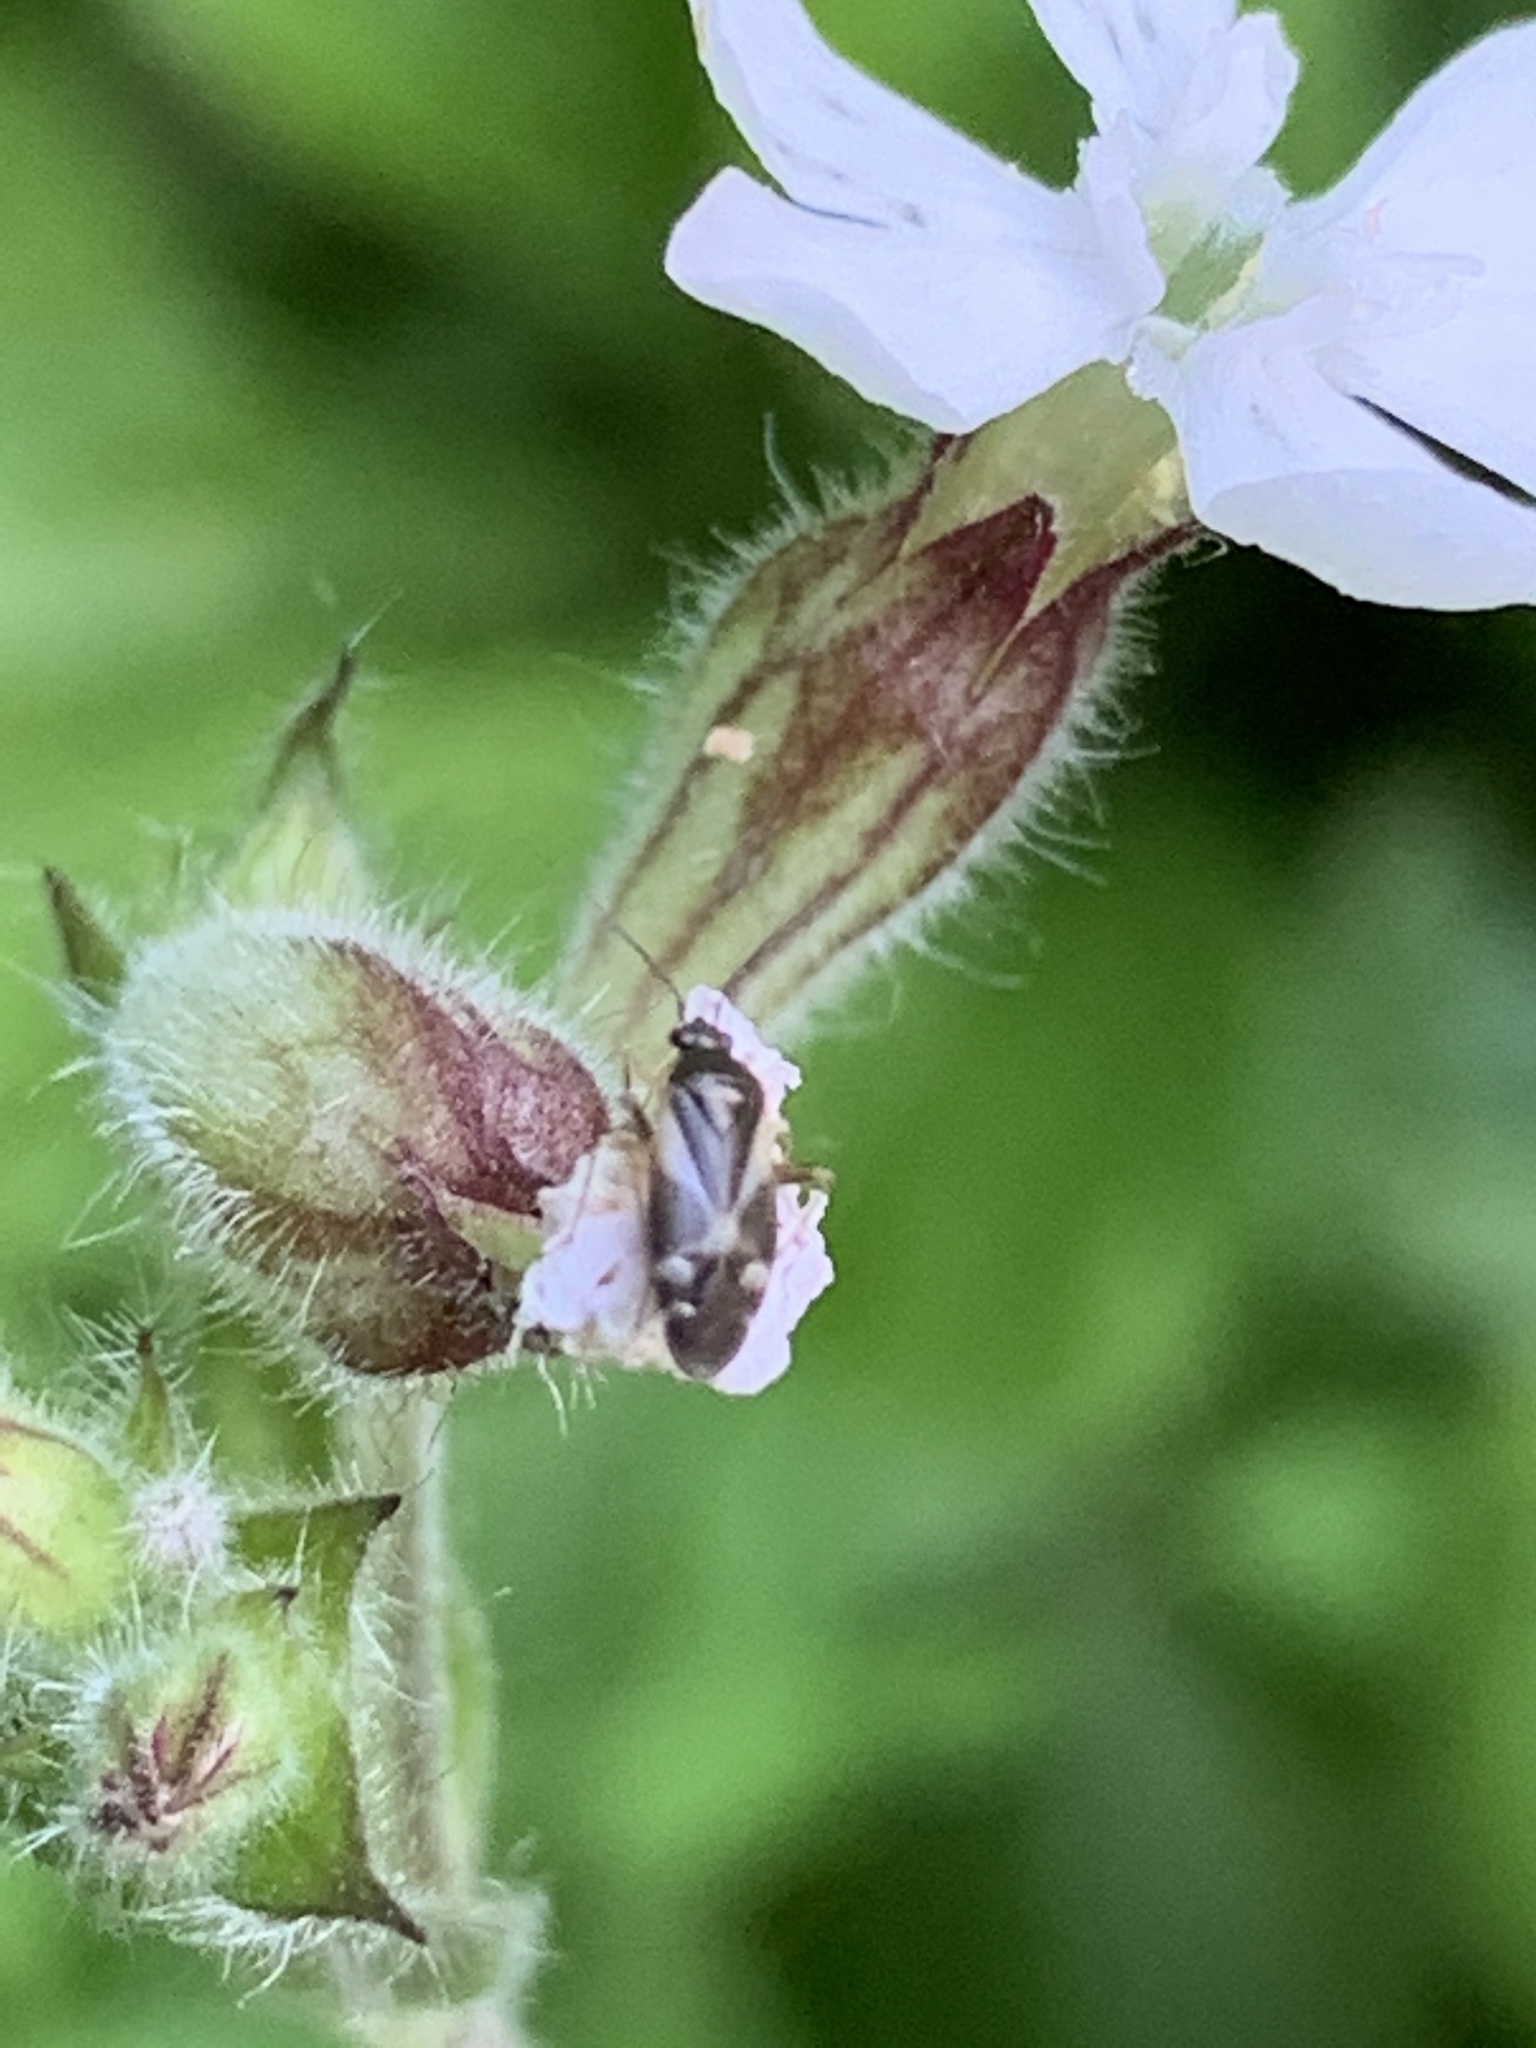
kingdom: Animalia
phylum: Arthropoda
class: Insecta
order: Hemiptera
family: Miridae
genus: Plagiognathus
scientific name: Plagiognathus obscurus
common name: Obscure plant bug
